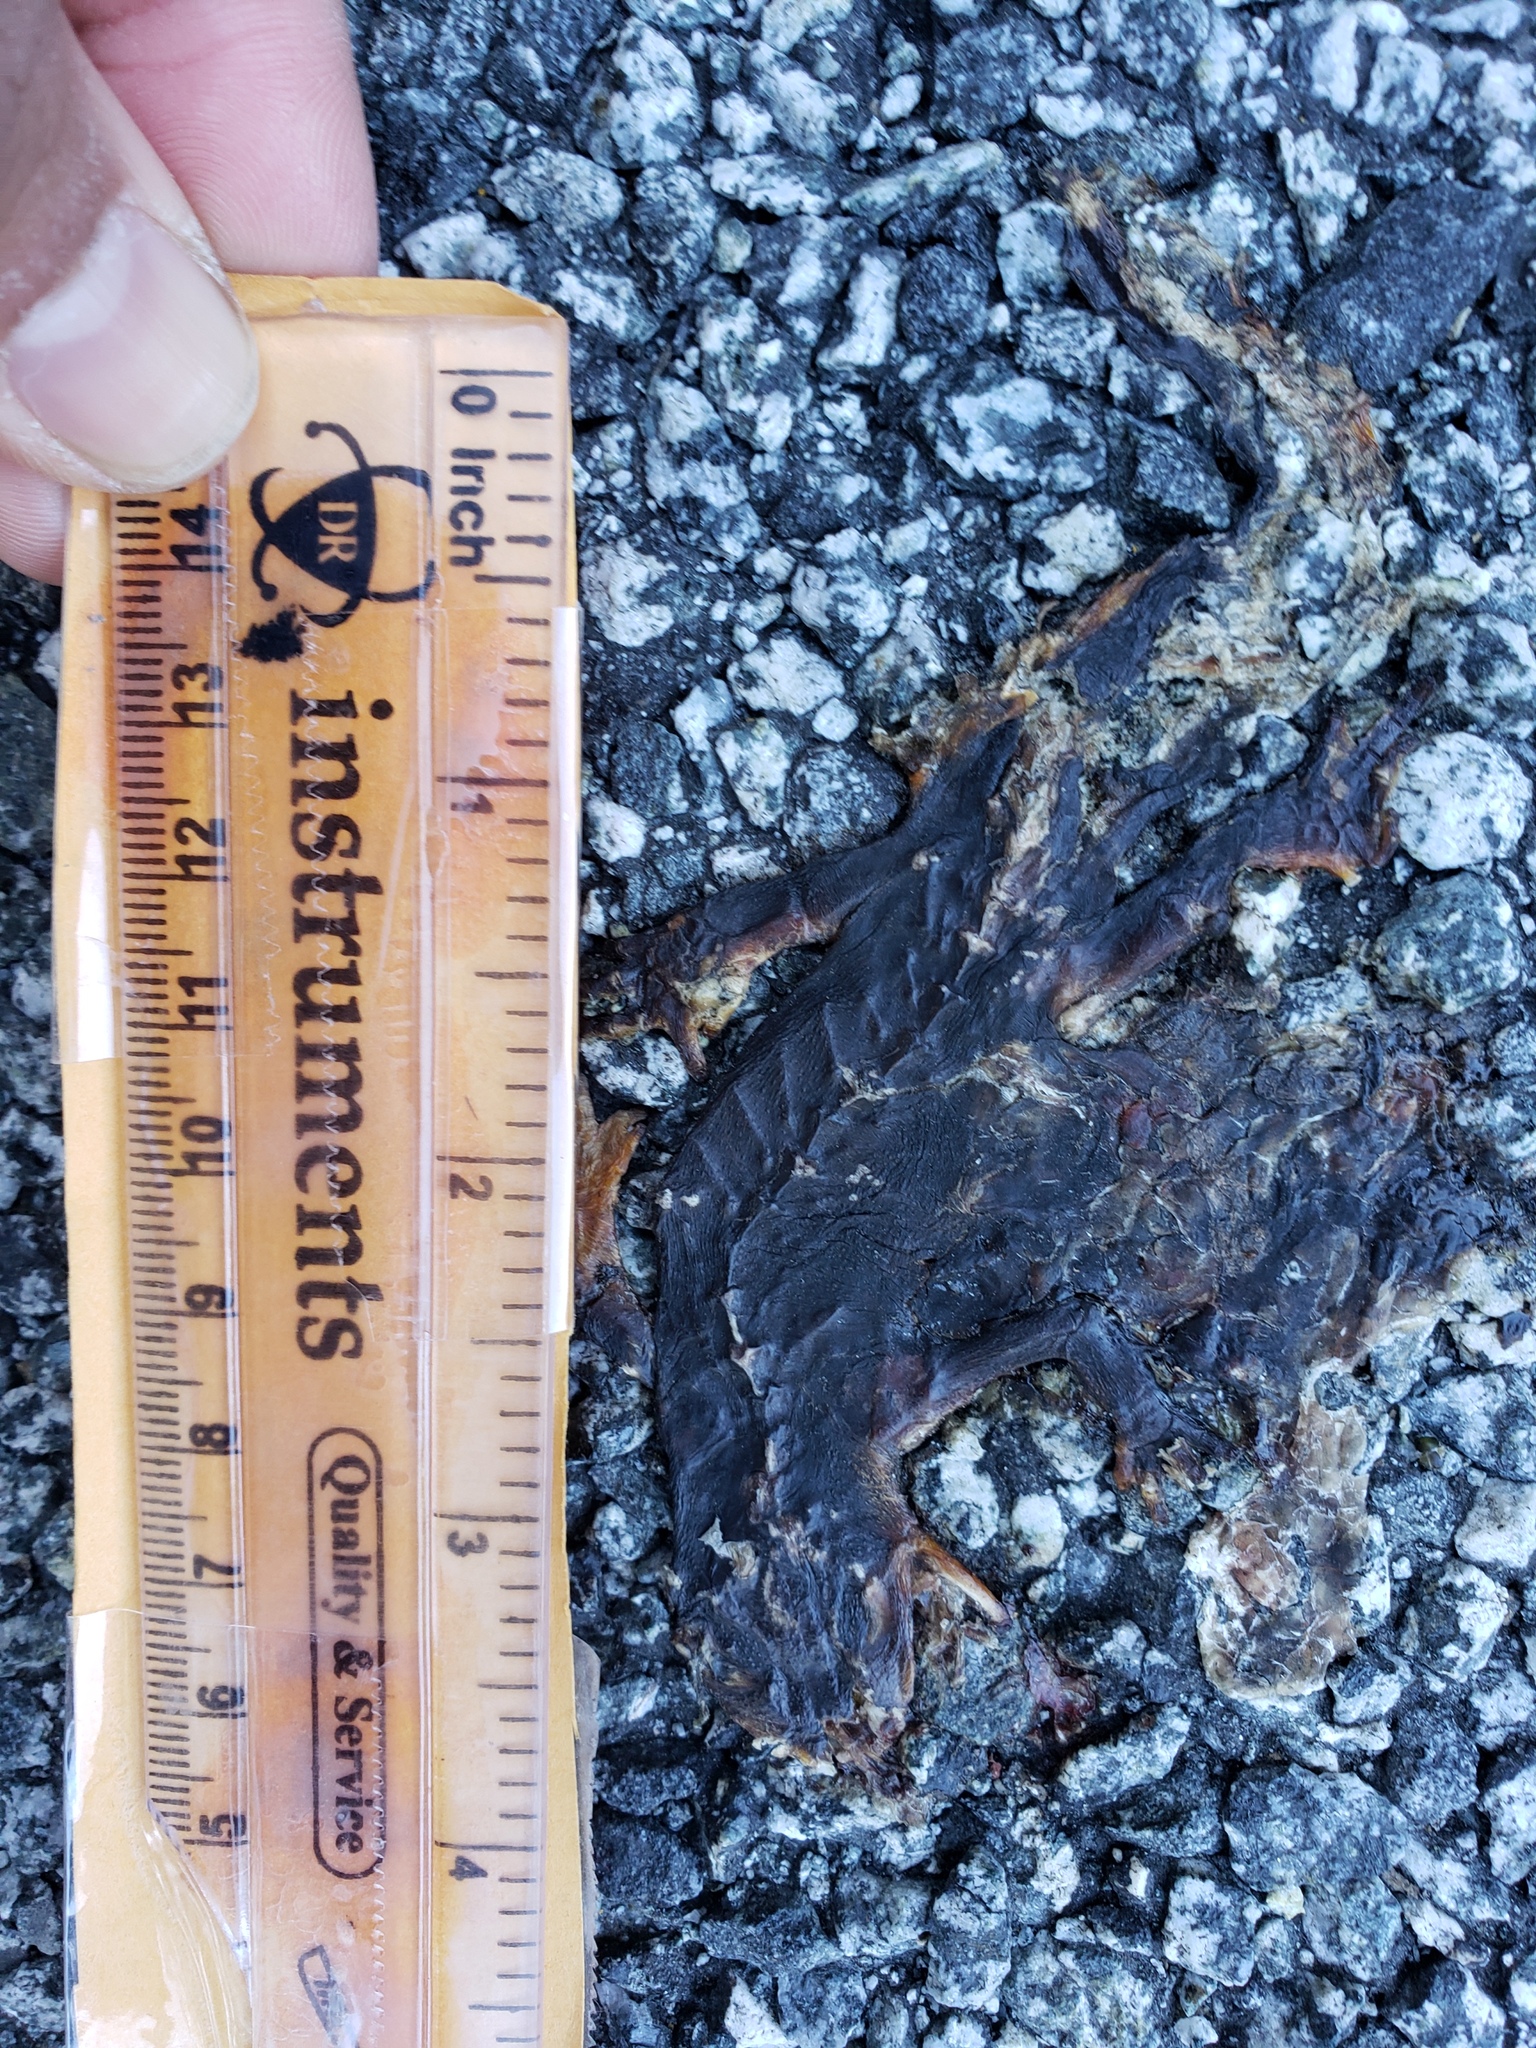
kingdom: Animalia
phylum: Chordata
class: Amphibia
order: Caudata
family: Salamandridae
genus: Taricha
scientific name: Taricha
